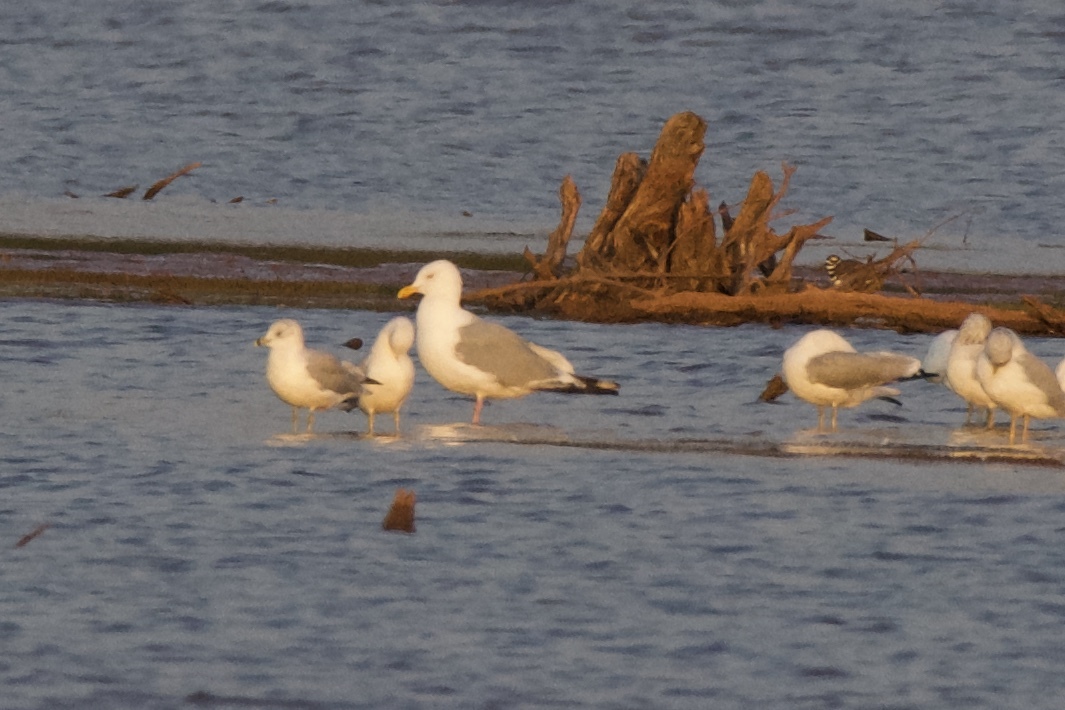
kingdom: Animalia
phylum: Chordata
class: Aves
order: Charadriiformes
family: Laridae
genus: Larus
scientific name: Larus argentatus
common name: Herring gull
